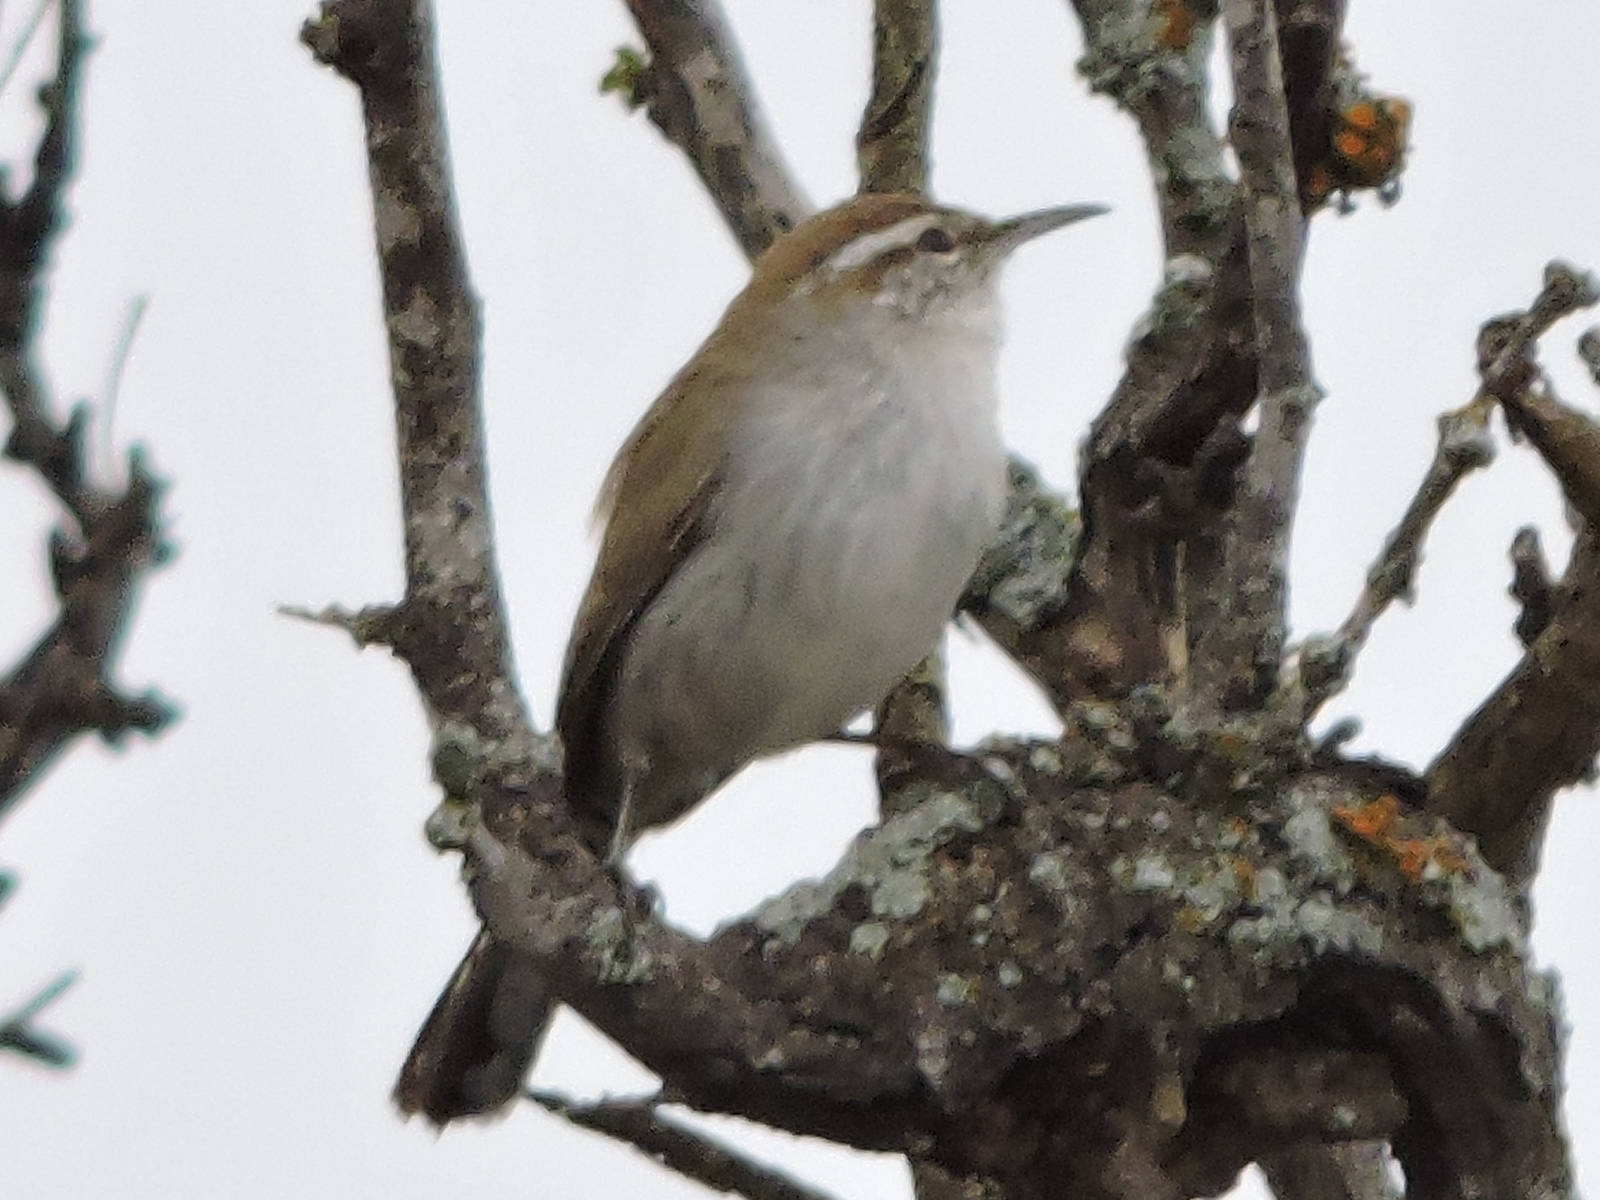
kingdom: Animalia
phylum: Chordata
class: Aves
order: Passeriformes
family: Troglodytidae
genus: Thryomanes
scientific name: Thryomanes bewickii
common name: Bewick's wren
